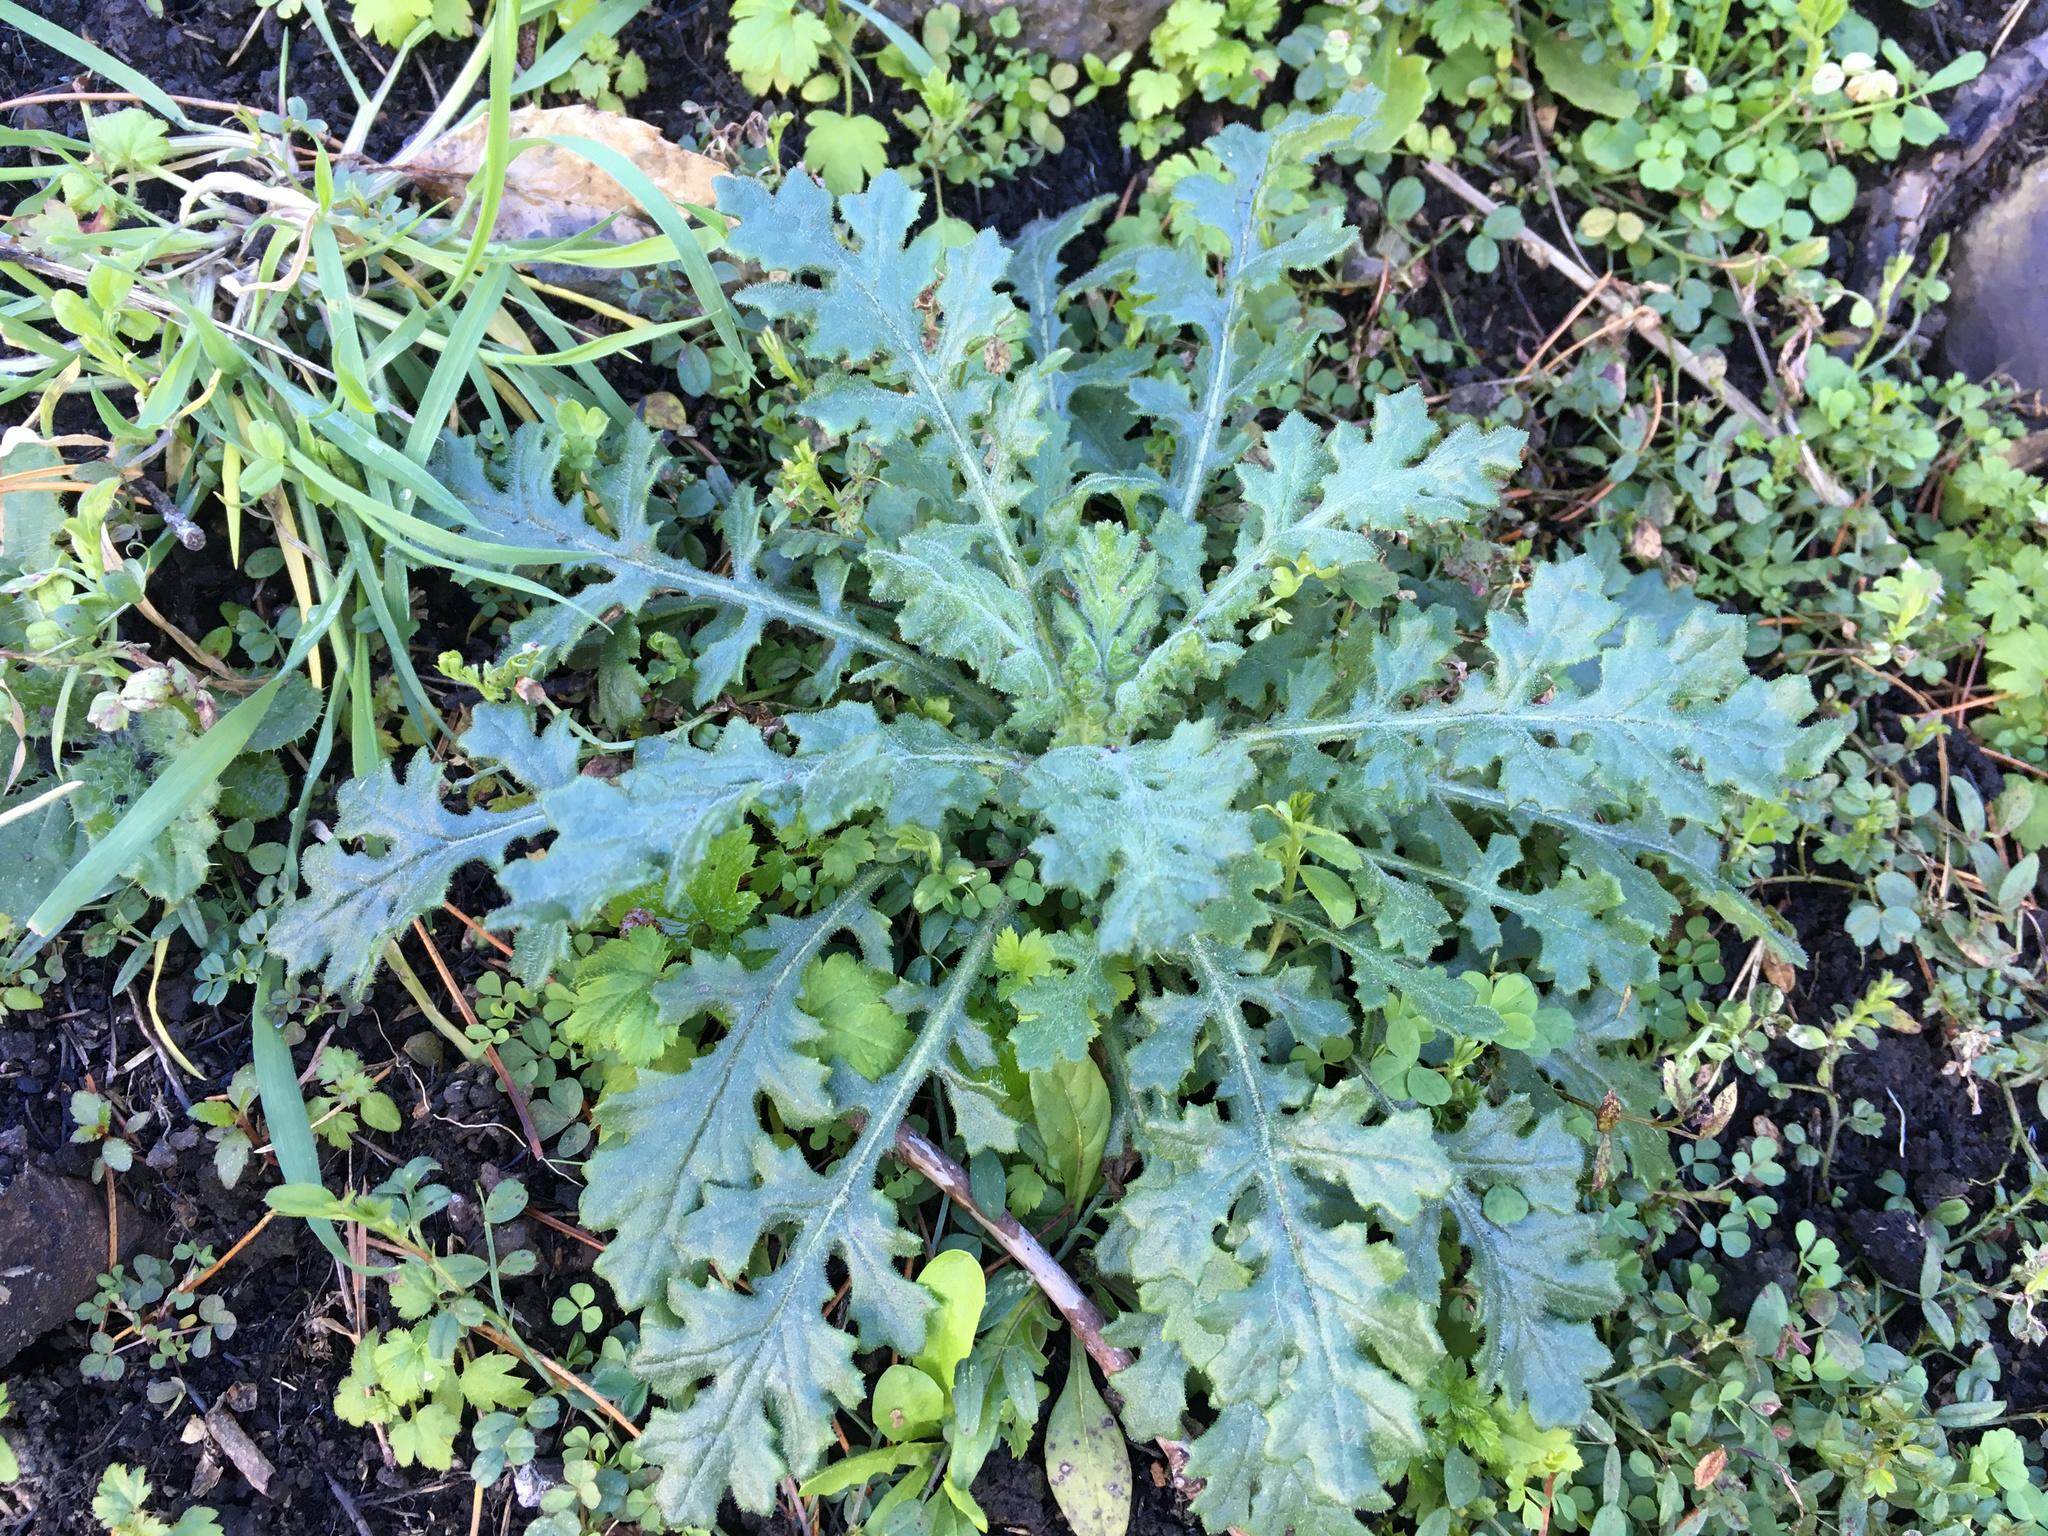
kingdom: Plantae
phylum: Tracheophyta
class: Magnoliopsida
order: Asterales
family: Asteraceae
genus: Senecio
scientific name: Senecio sylvaticus
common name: Woodland ragwort
